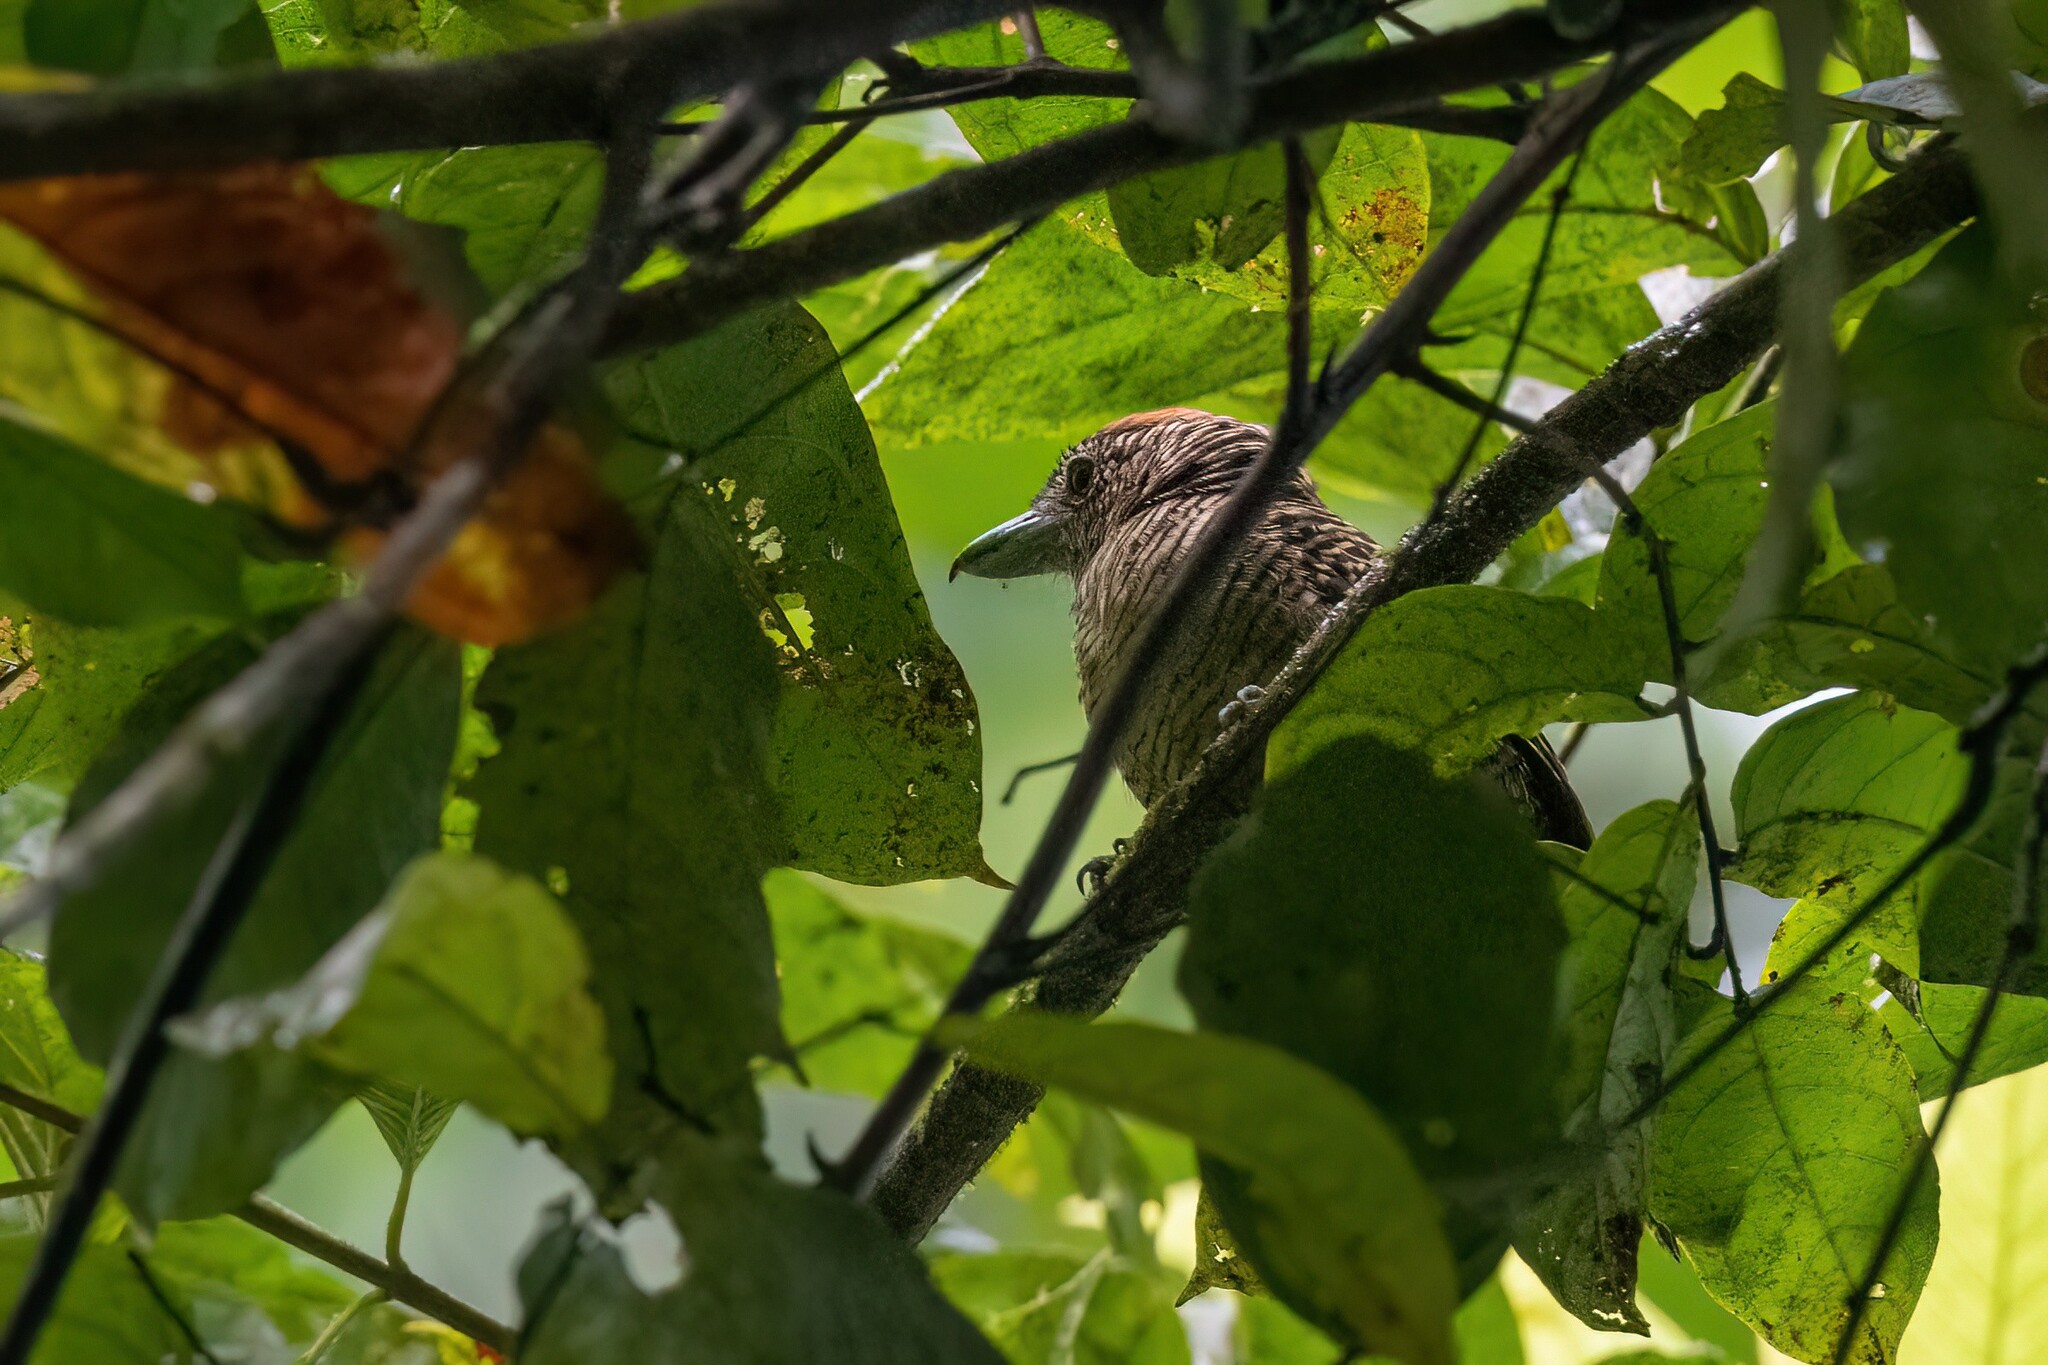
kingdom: Animalia
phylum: Chordata
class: Aves
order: Passeriformes
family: Thamnophilidae
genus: Cymbilaimus
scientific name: Cymbilaimus lineatus
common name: Fasciated antshrike
